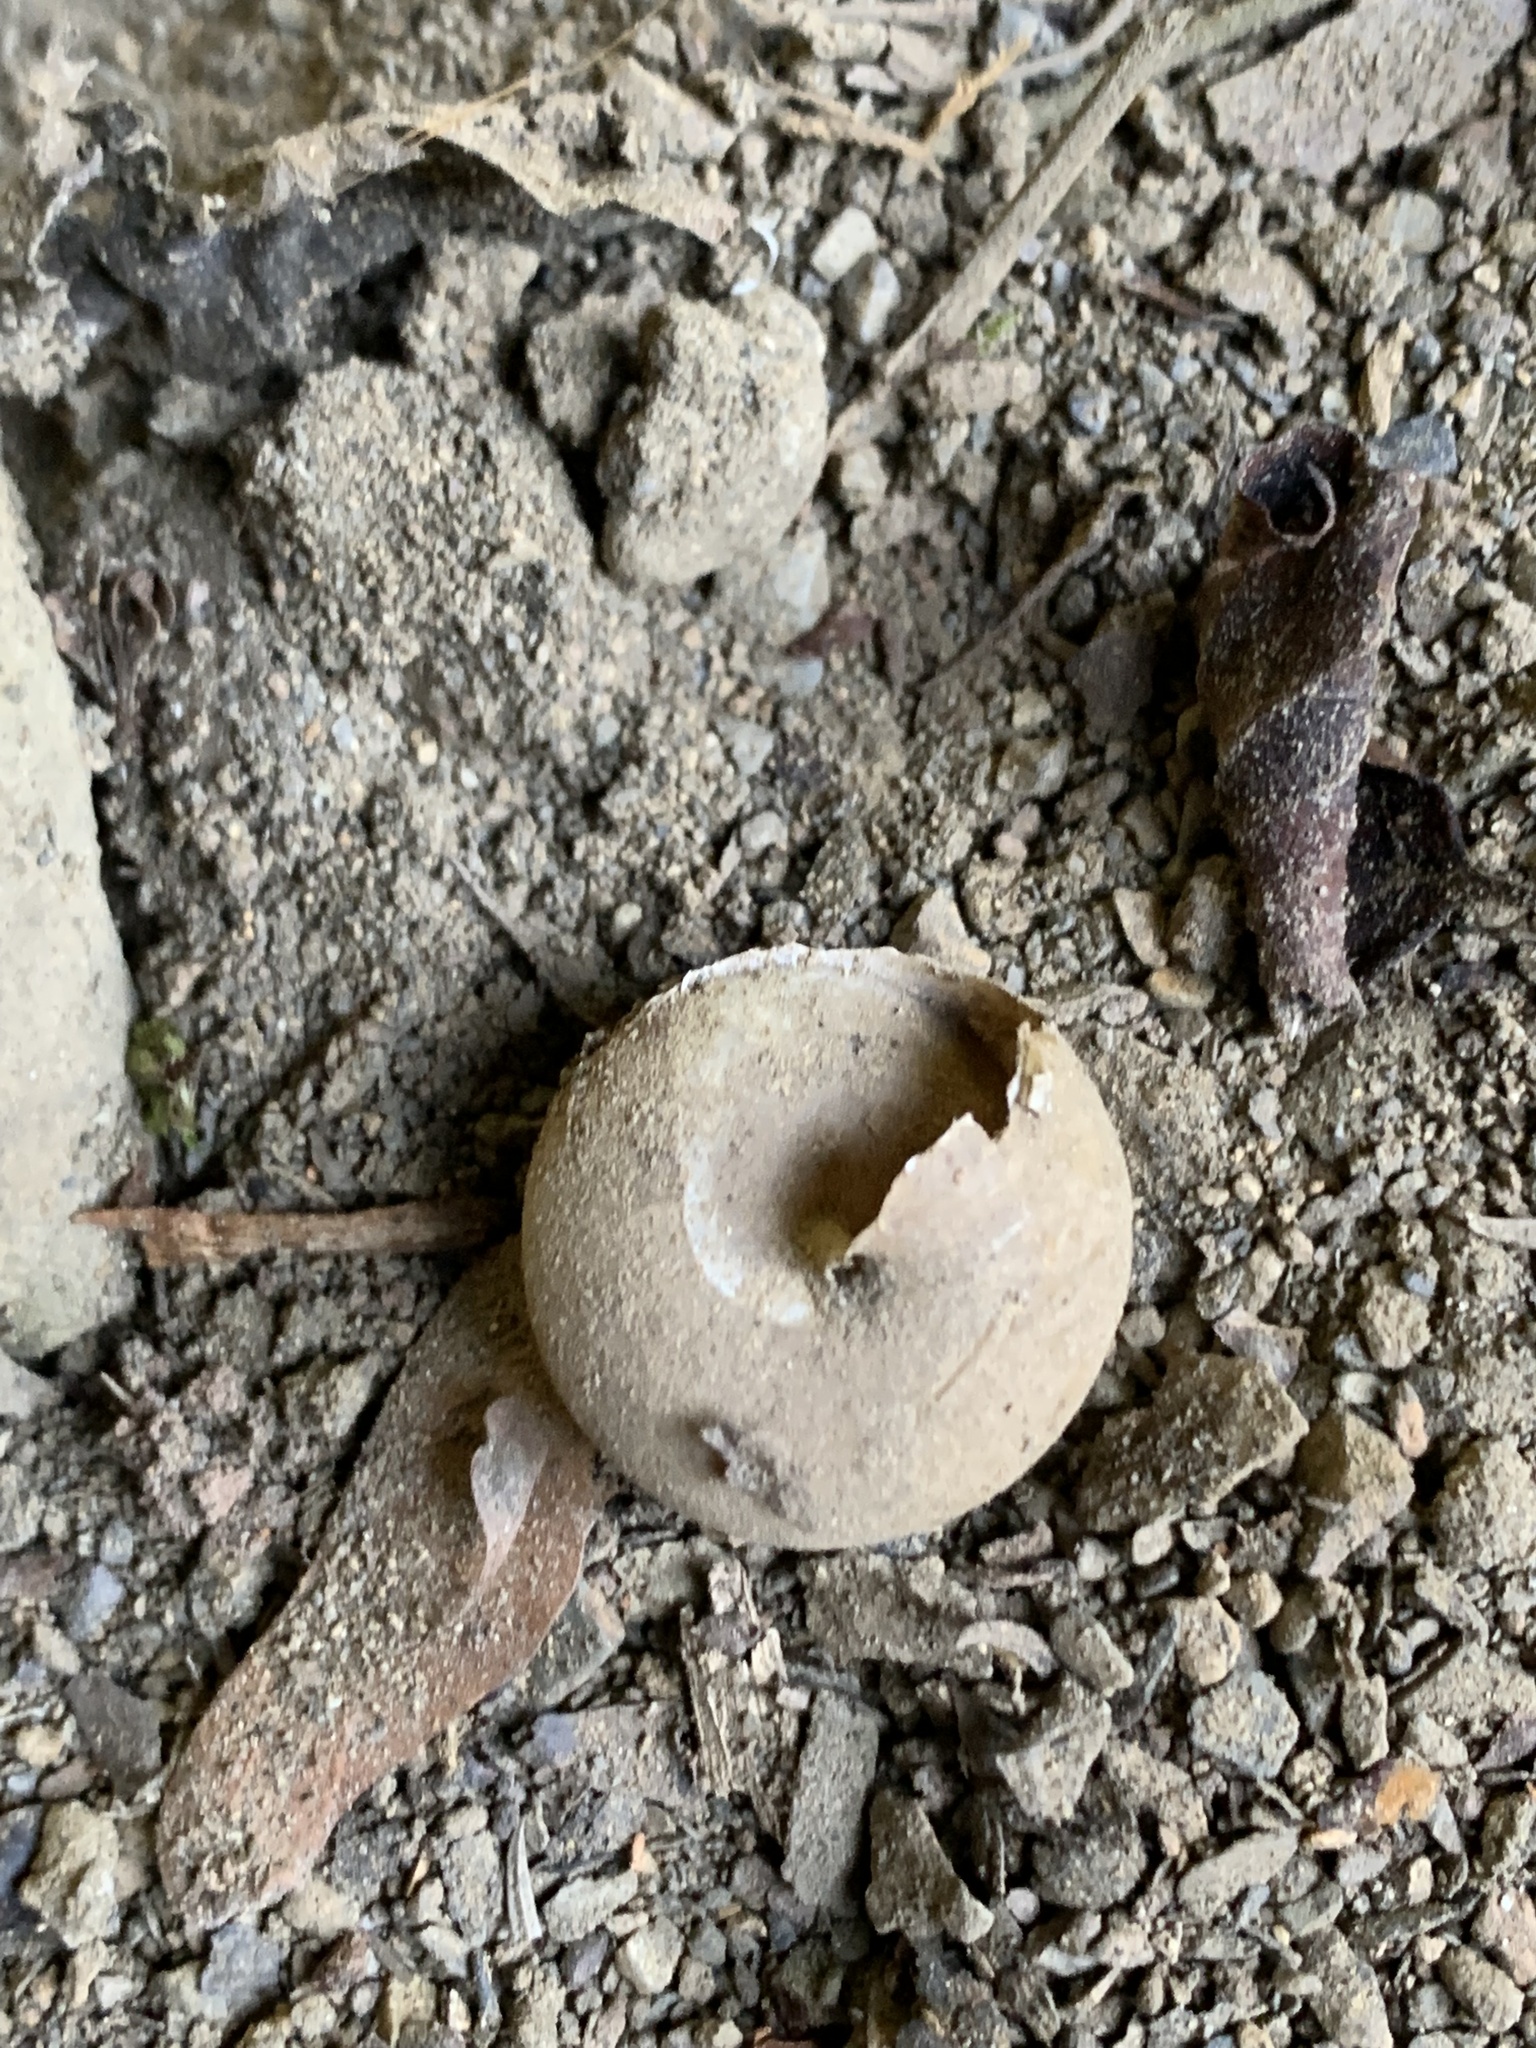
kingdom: Animalia
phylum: Mollusca
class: Gastropoda
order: Stylommatophora
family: Camaenidae
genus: Satsuma
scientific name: Satsuma papilliformis
